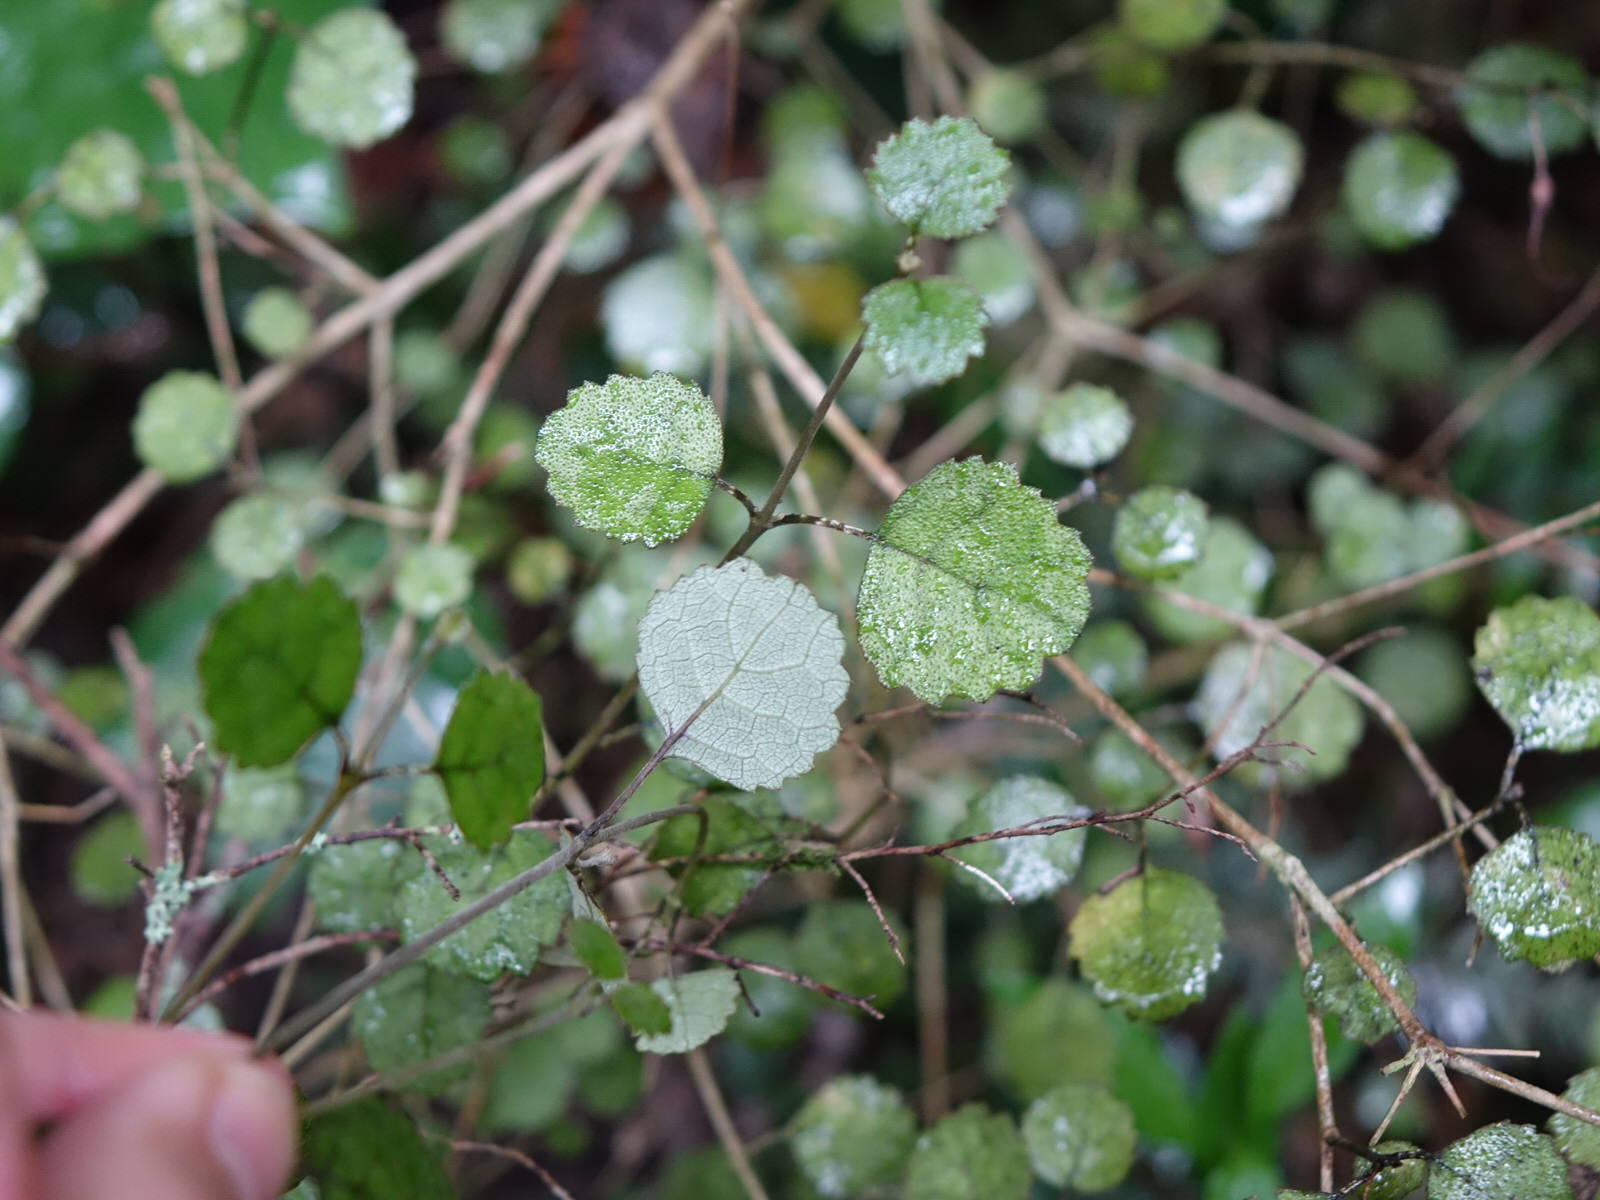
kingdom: Plantae
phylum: Tracheophyta
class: Magnoliopsida
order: Lamiales
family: Gesneriaceae
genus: Rhabdothamnus
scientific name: Rhabdothamnus solandri
